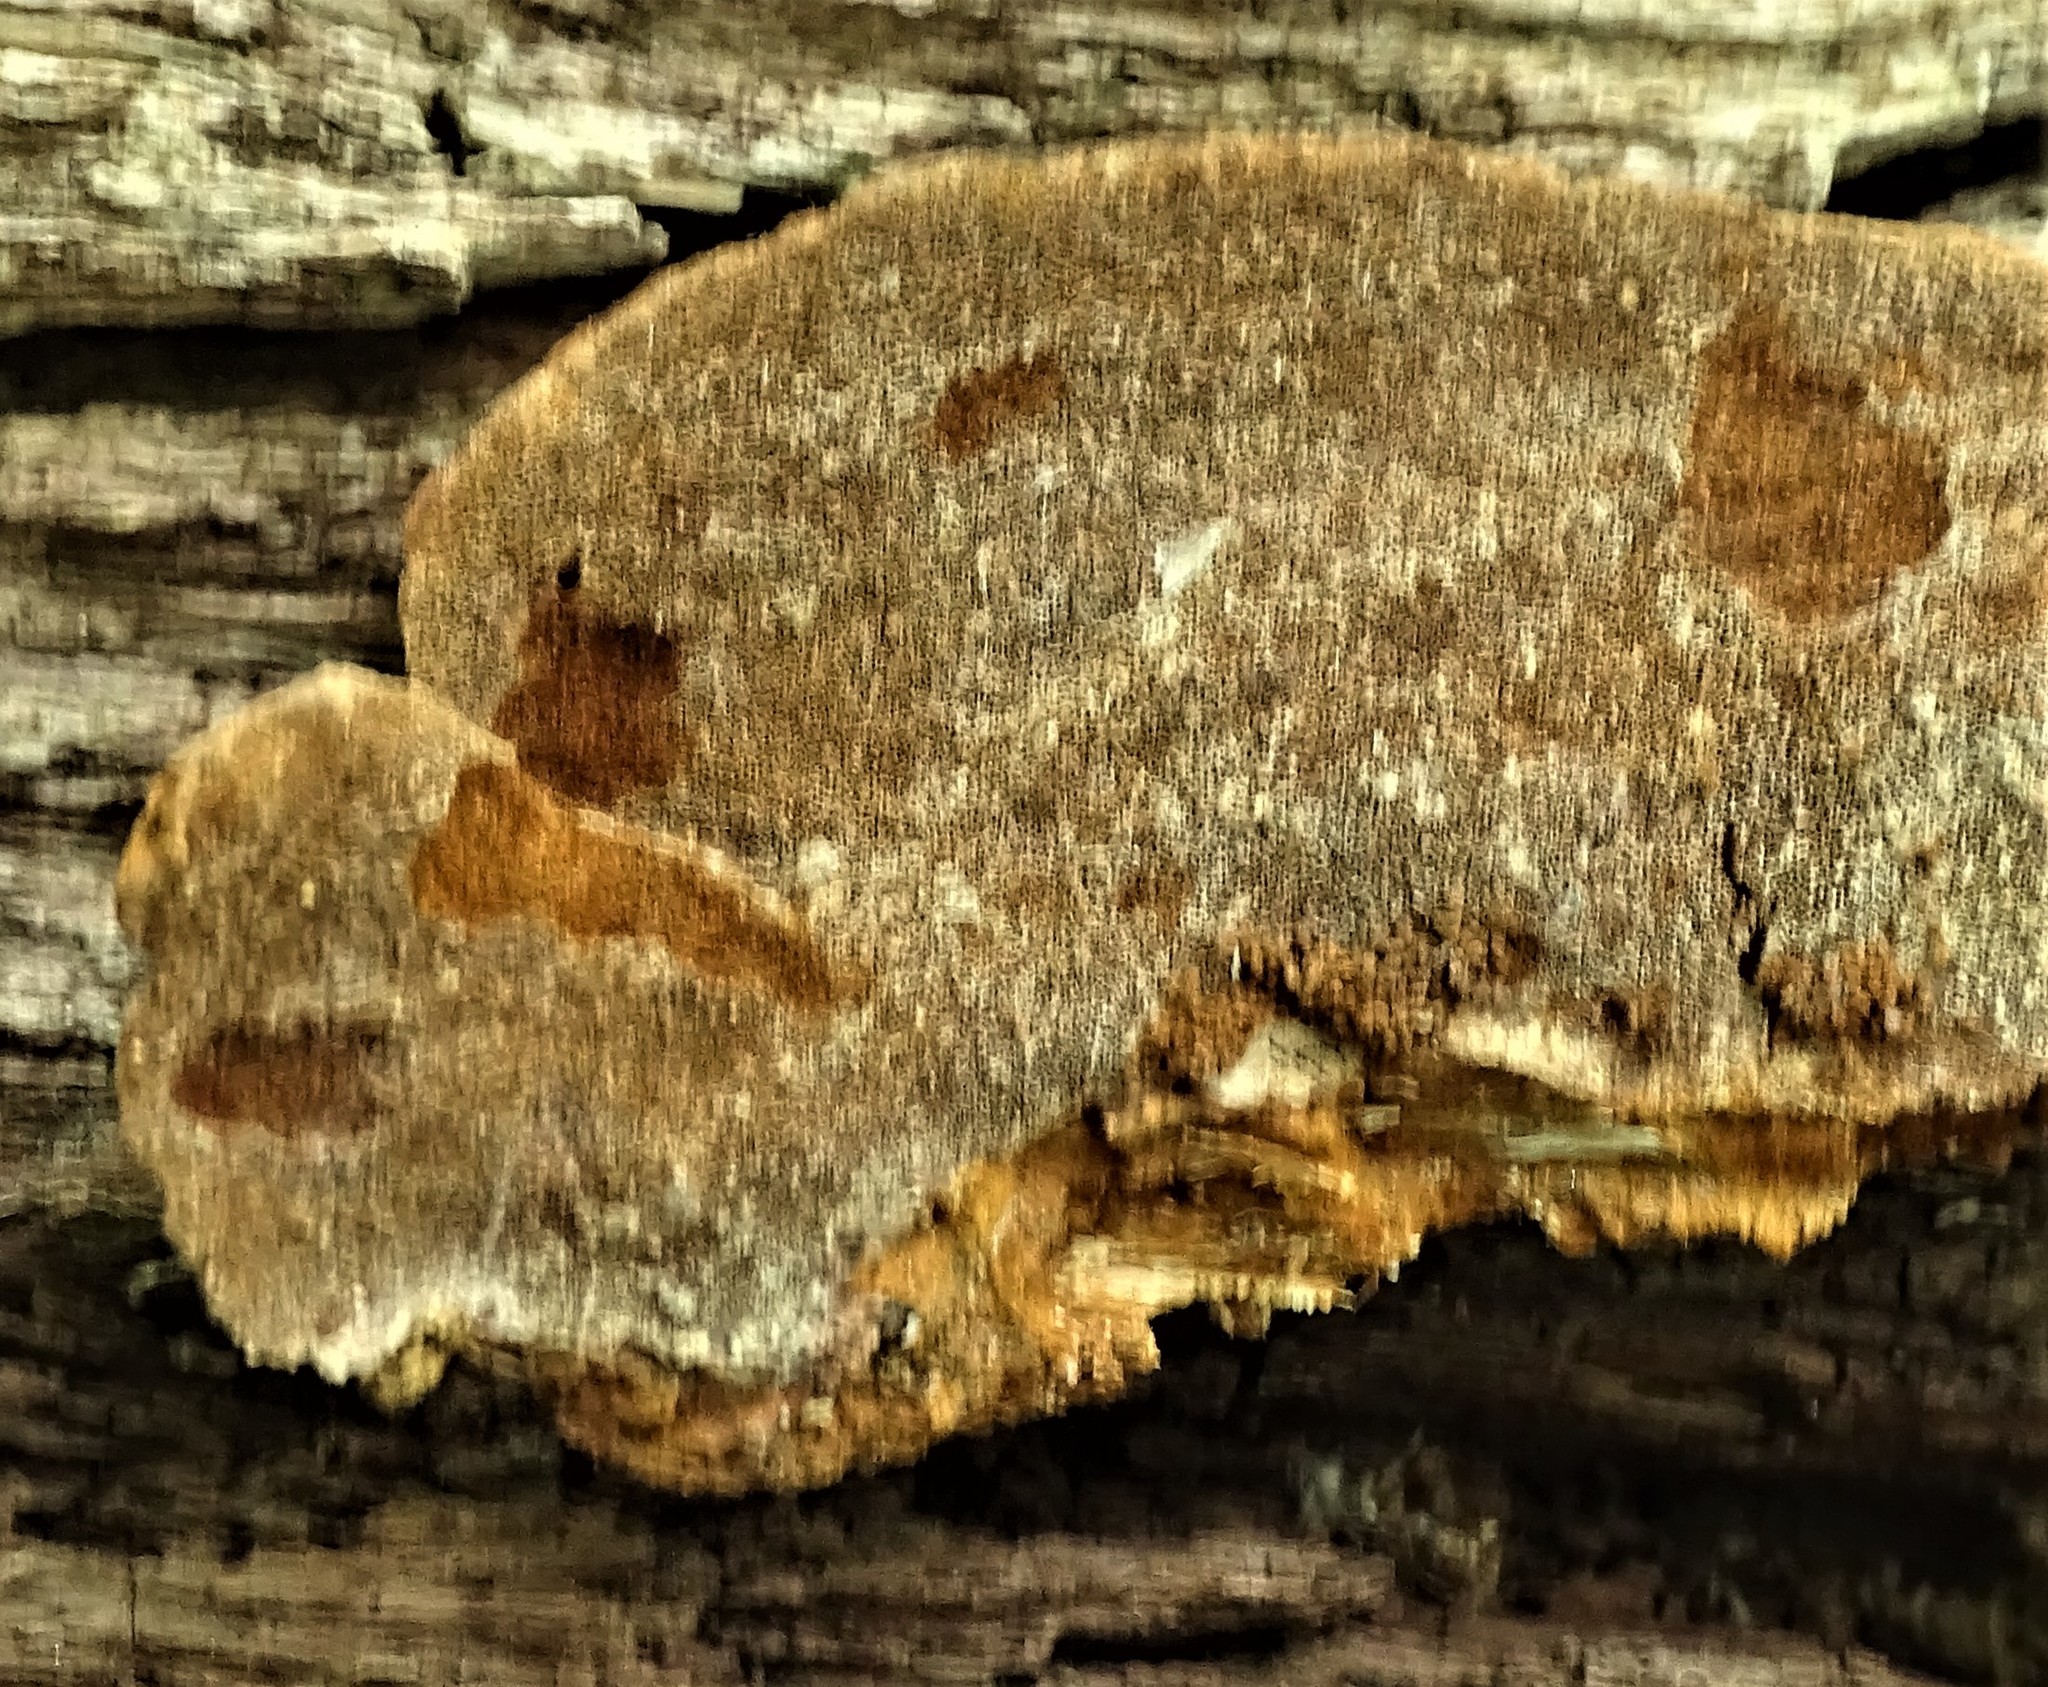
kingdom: Fungi
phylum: Basidiomycota
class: Agaricomycetes
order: Hymenochaetales
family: Hymenochaetaceae
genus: Phellinus
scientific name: Phellinus gilvus
